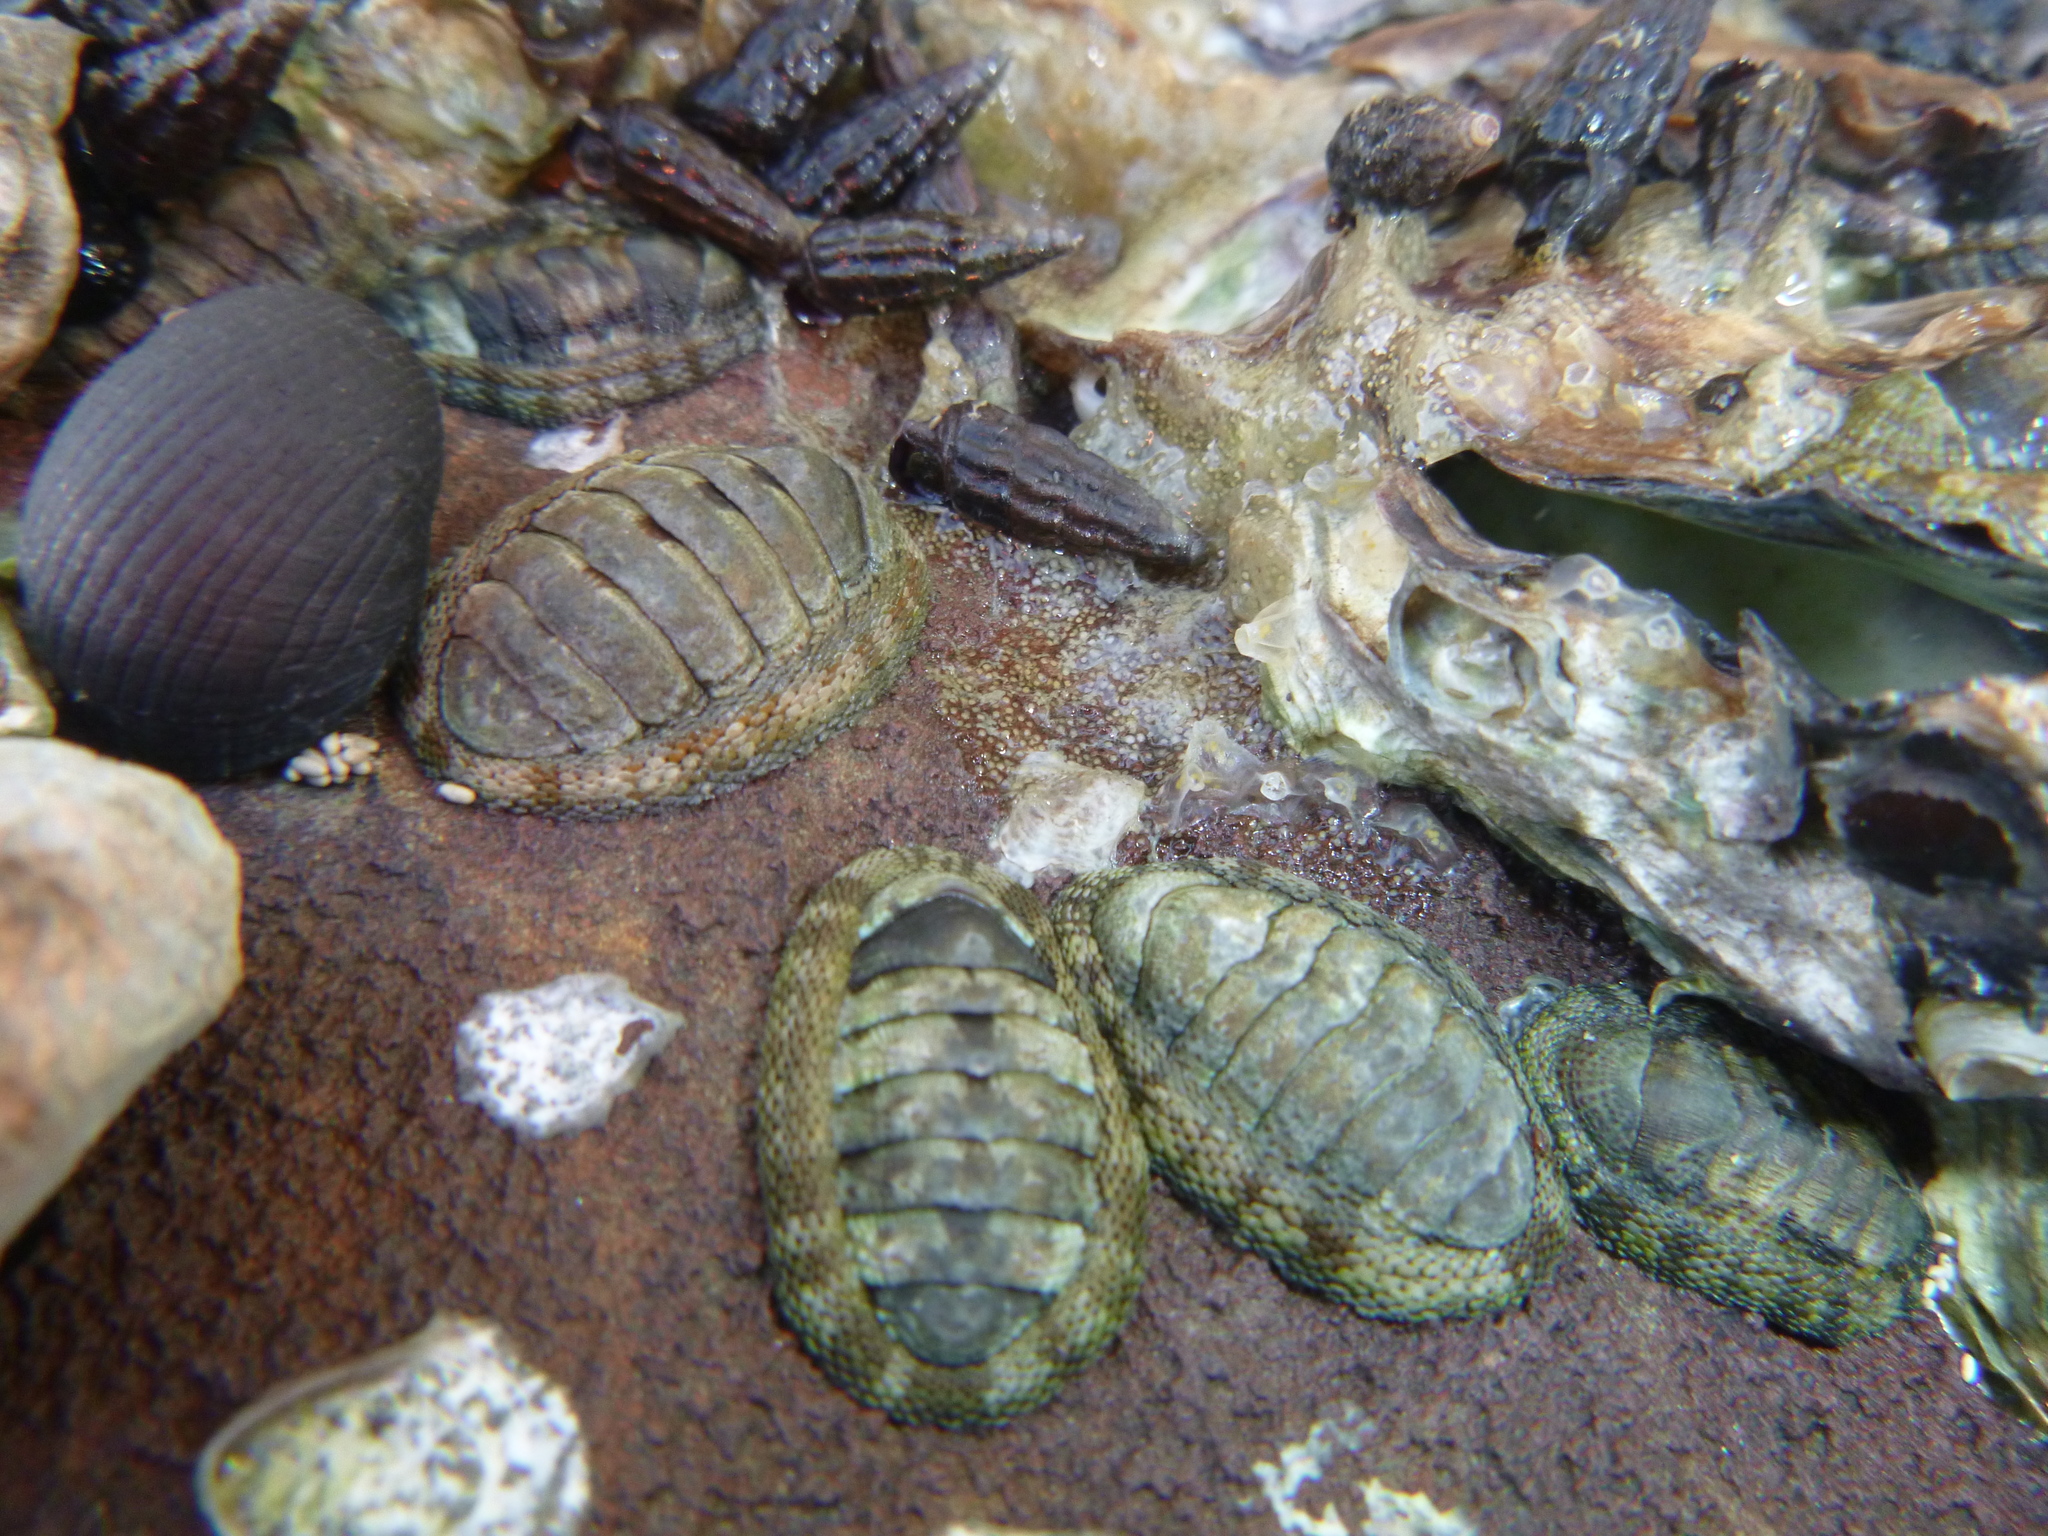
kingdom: Animalia
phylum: Mollusca
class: Polyplacophora
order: Chitonida
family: Chitonidae
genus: Sypharochiton
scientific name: Sypharochiton pelliserpentis
